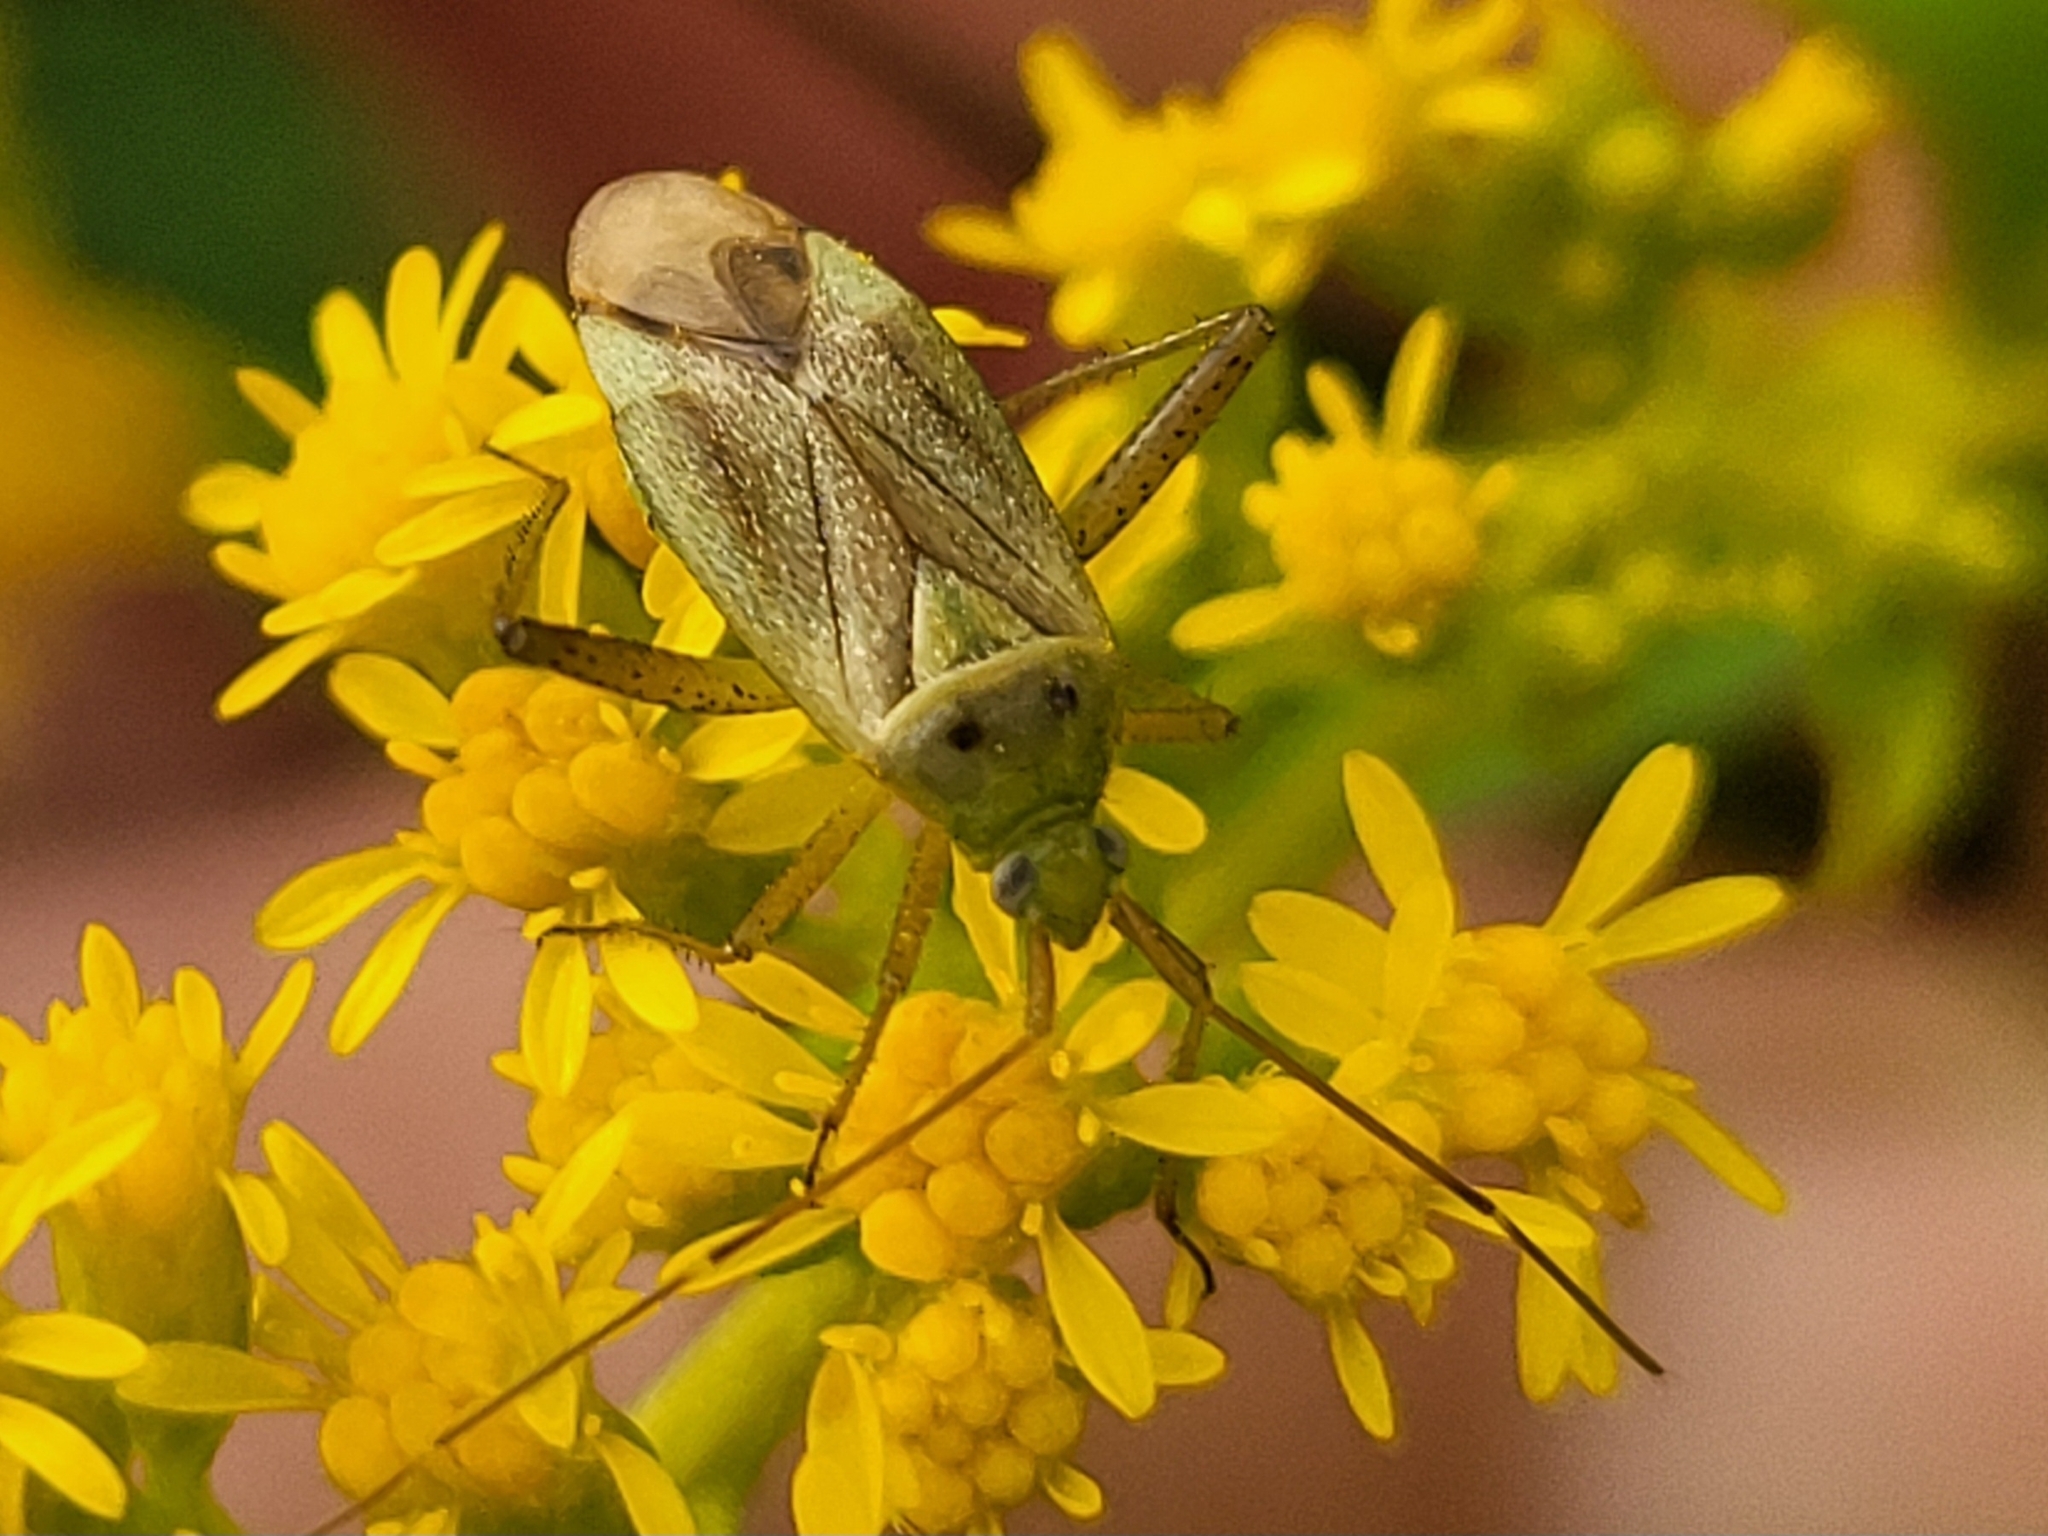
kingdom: Animalia
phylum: Arthropoda
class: Insecta
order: Hemiptera
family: Miridae
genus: Adelphocoris
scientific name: Adelphocoris quadripunctatus
